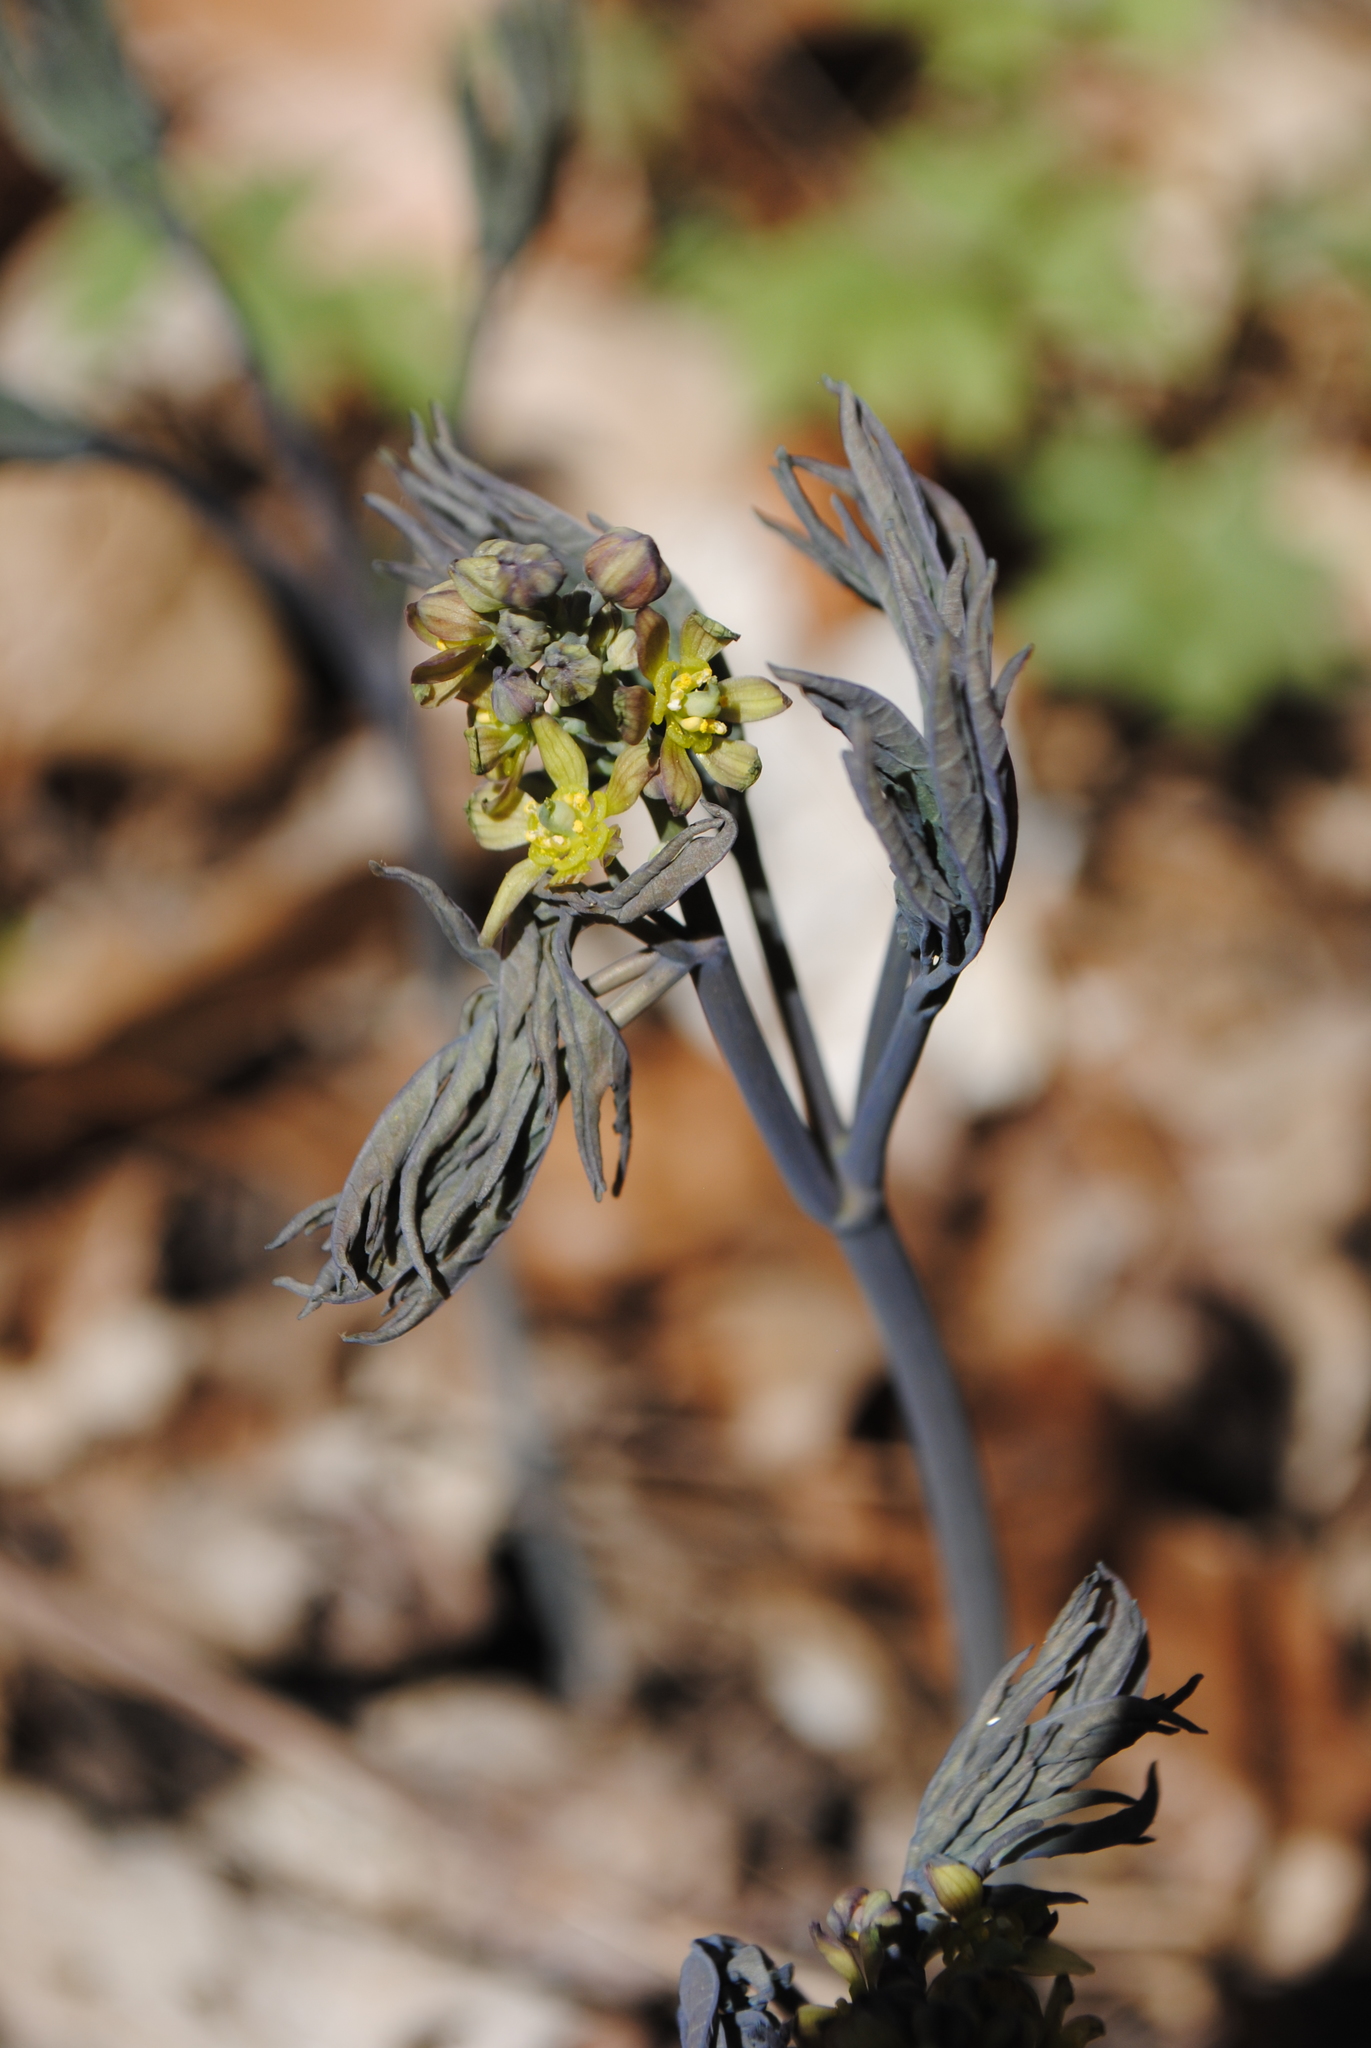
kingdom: Plantae
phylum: Tracheophyta
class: Magnoliopsida
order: Ranunculales
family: Berberidaceae
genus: Caulophyllum
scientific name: Caulophyllum thalictroides
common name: Blue cohosh
